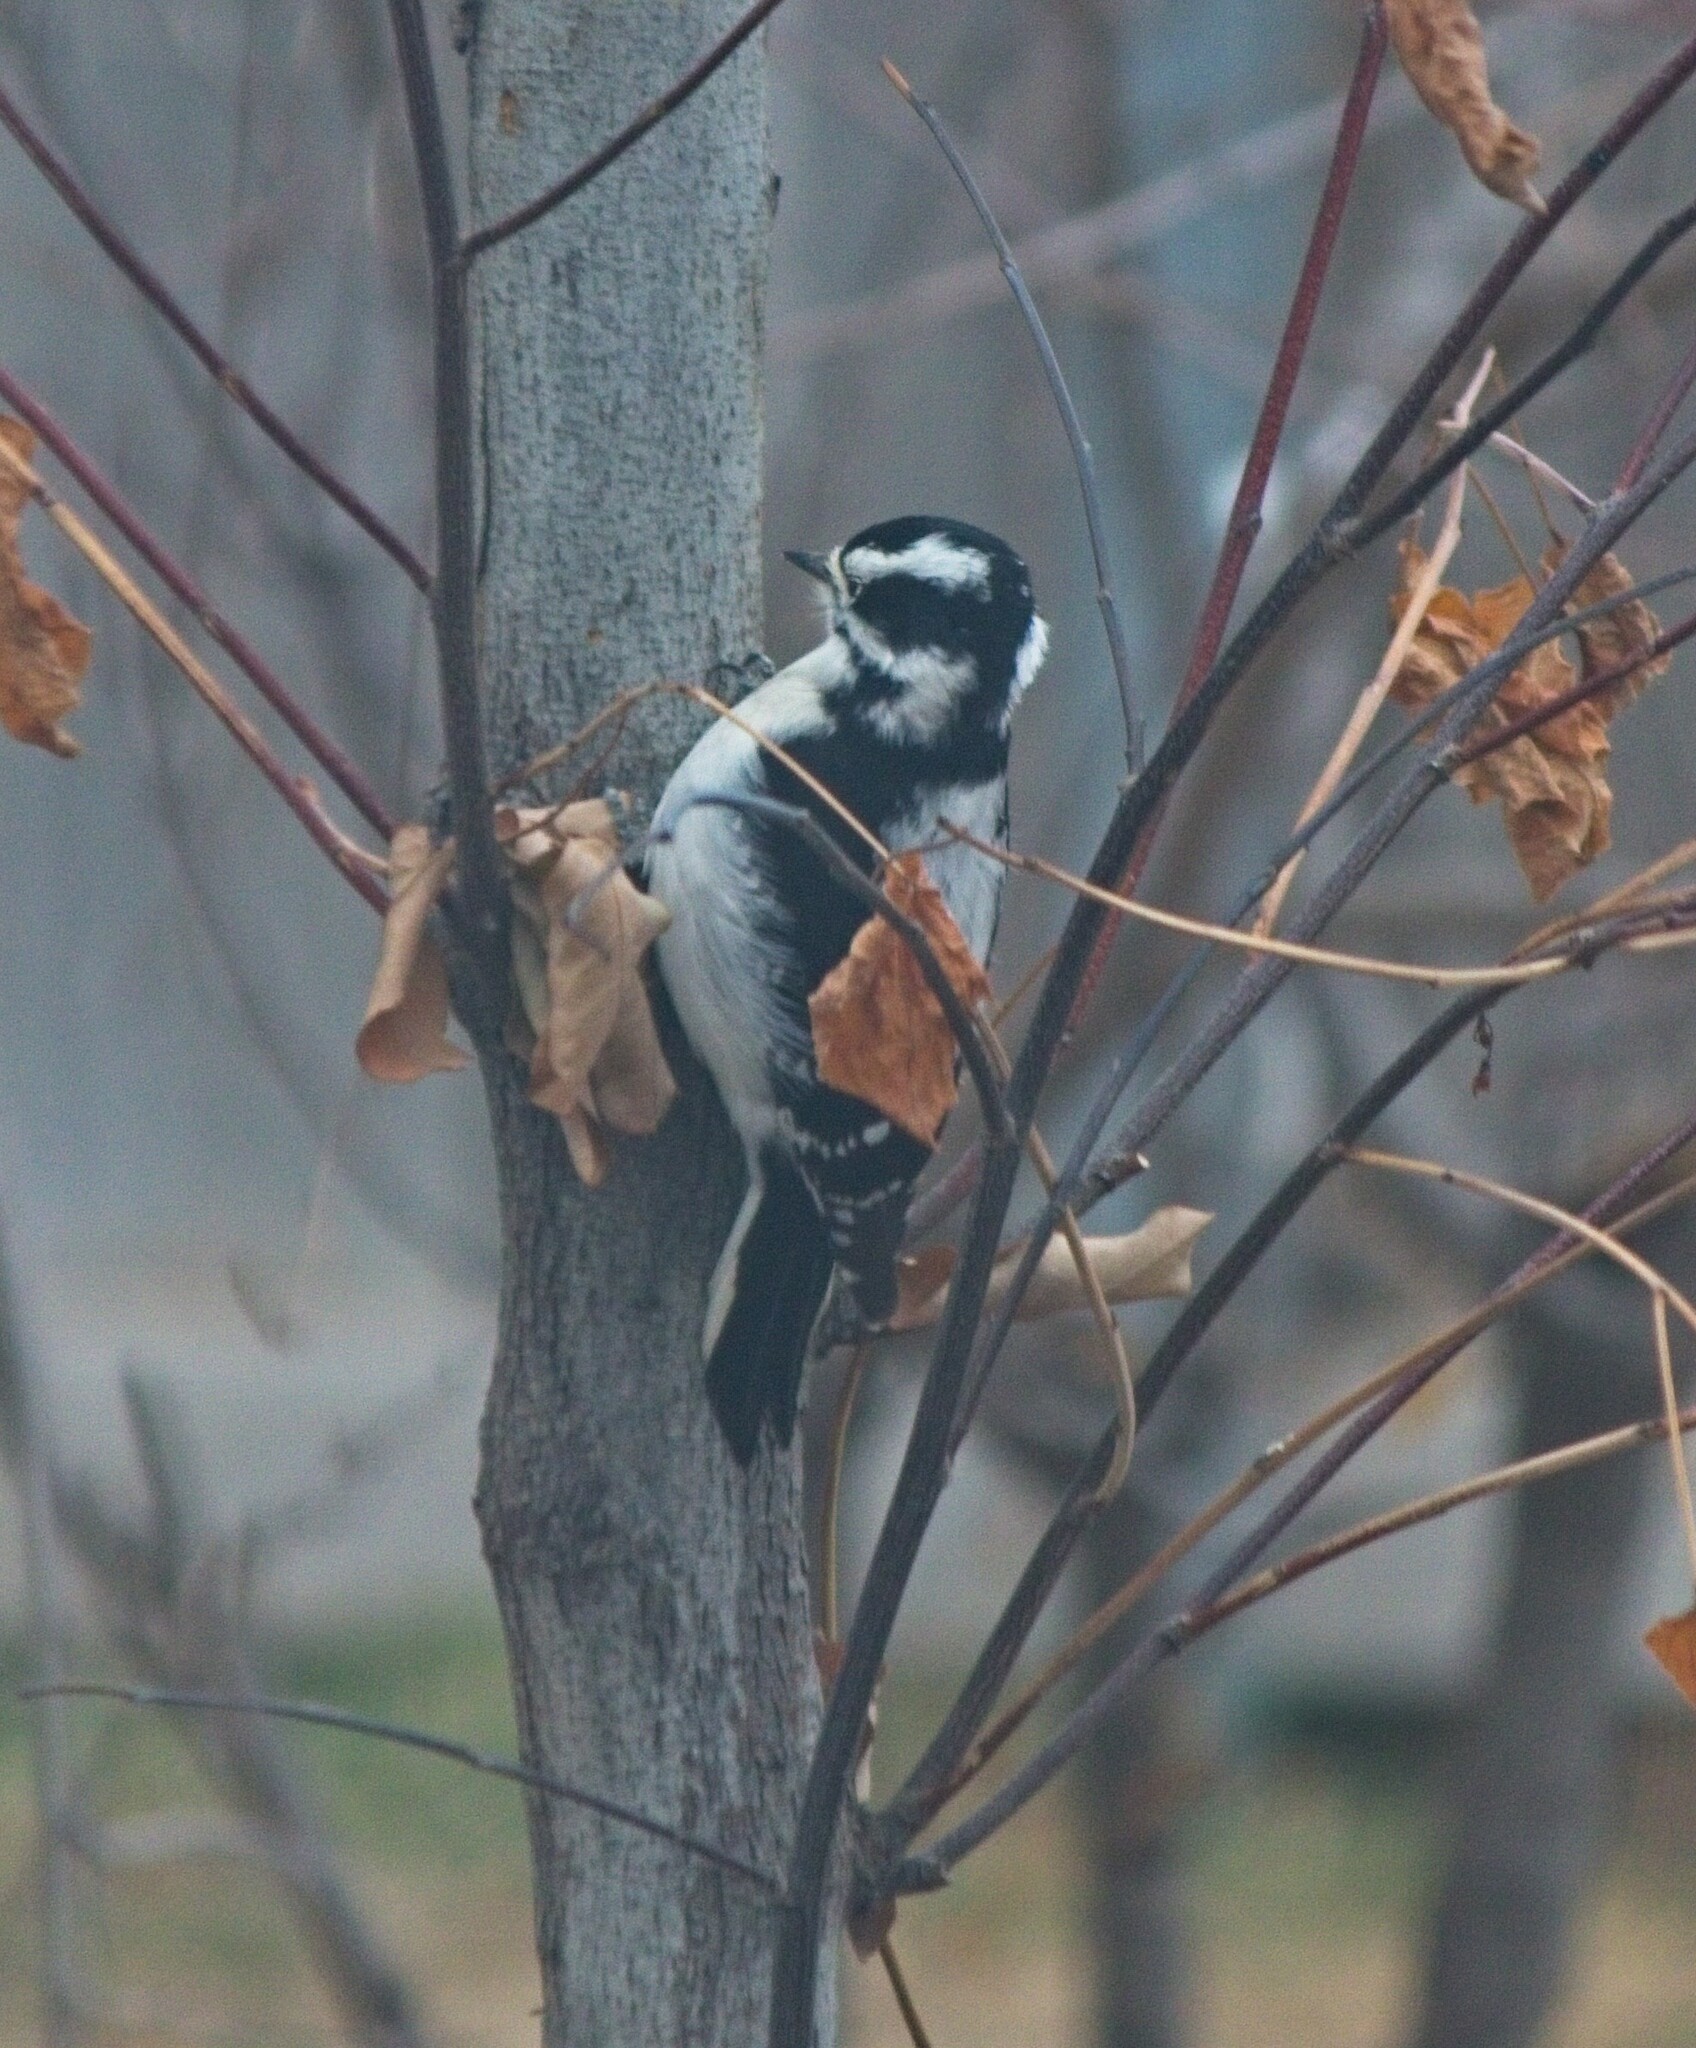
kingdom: Animalia
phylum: Chordata
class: Aves
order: Piciformes
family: Picidae
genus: Dryobates
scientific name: Dryobates pubescens
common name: Downy woodpecker
